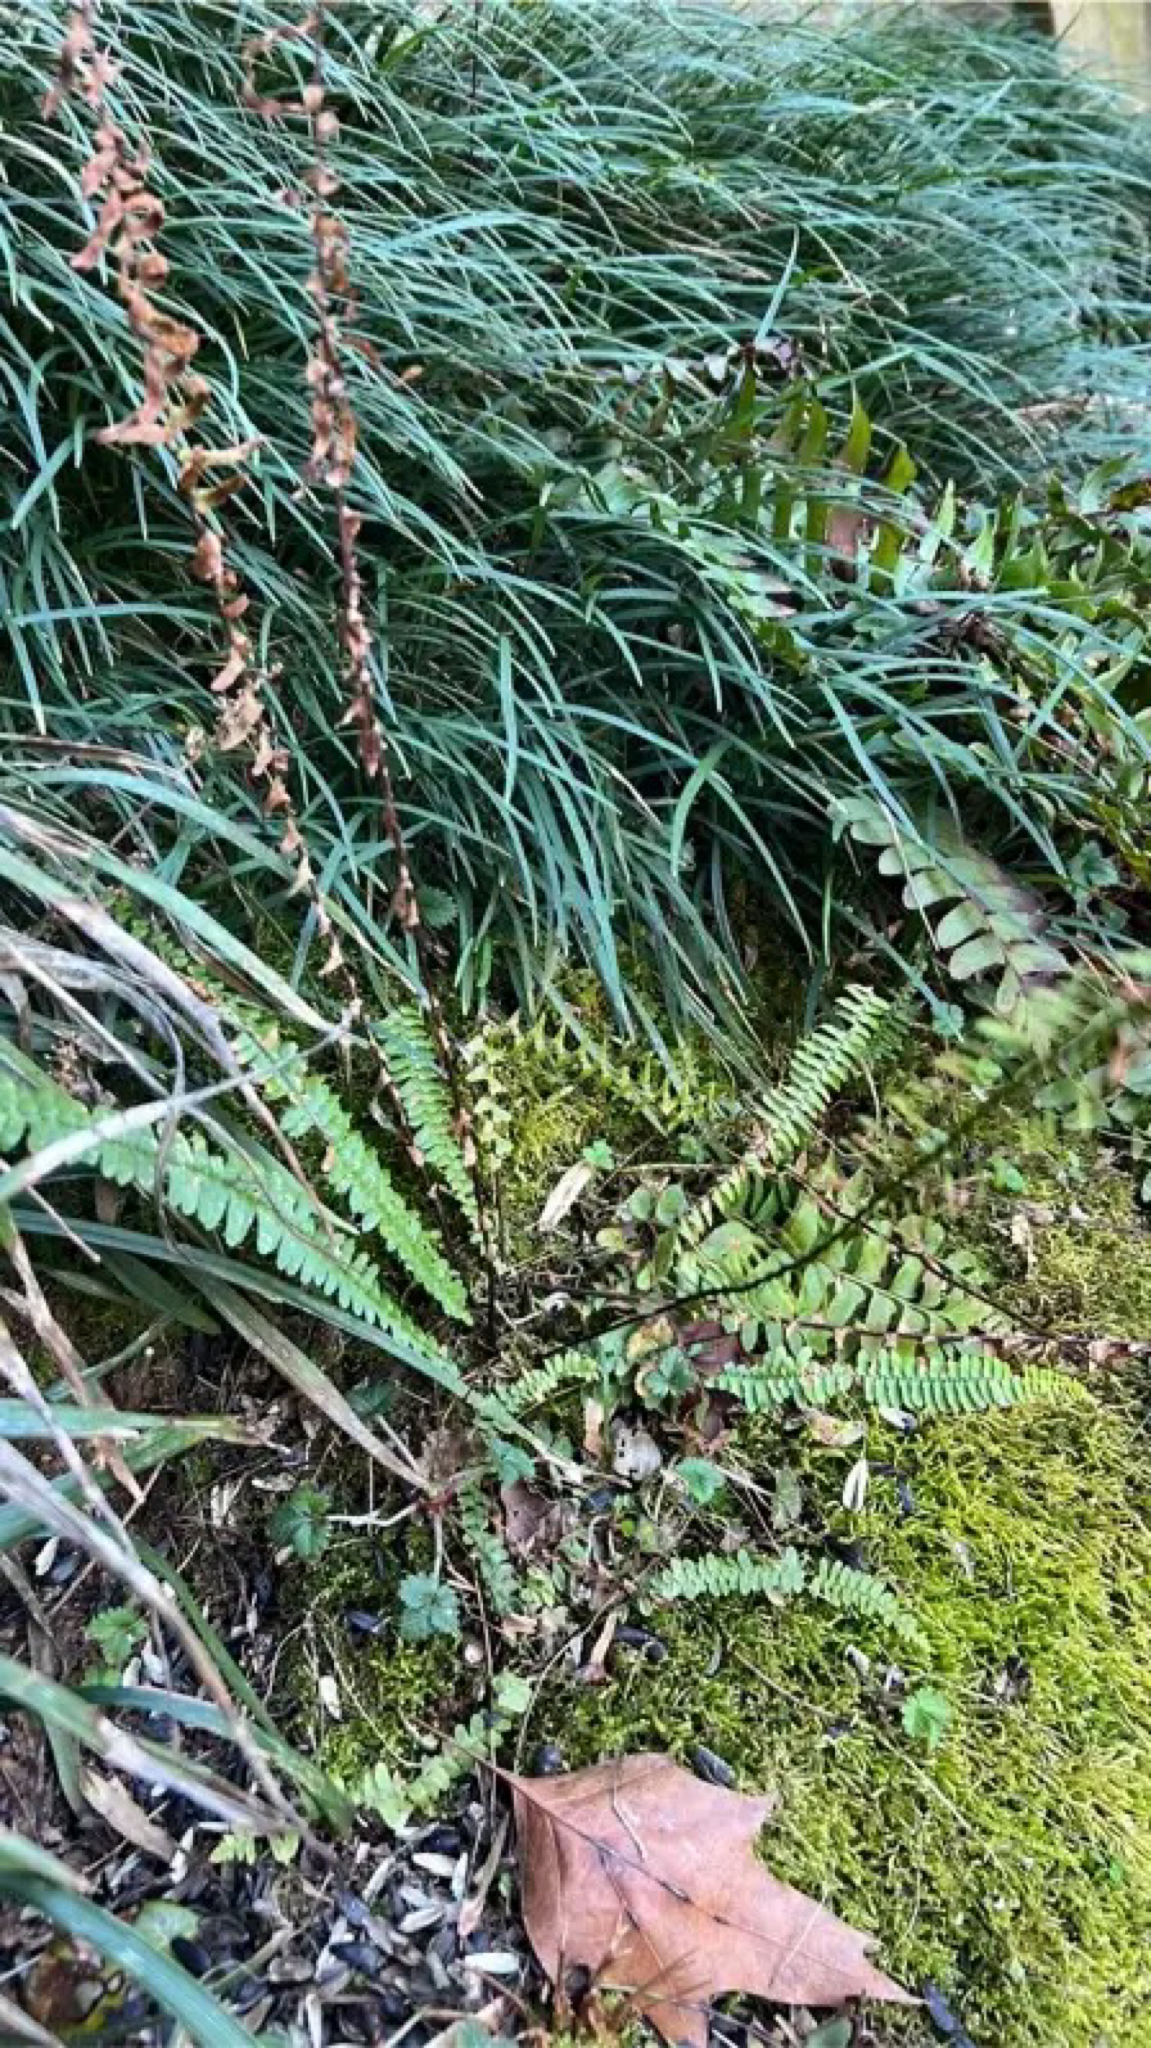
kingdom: Plantae
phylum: Tracheophyta
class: Polypodiopsida
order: Polypodiales
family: Aspleniaceae
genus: Asplenium
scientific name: Asplenium platyneuron
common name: Ebony spleenwort
